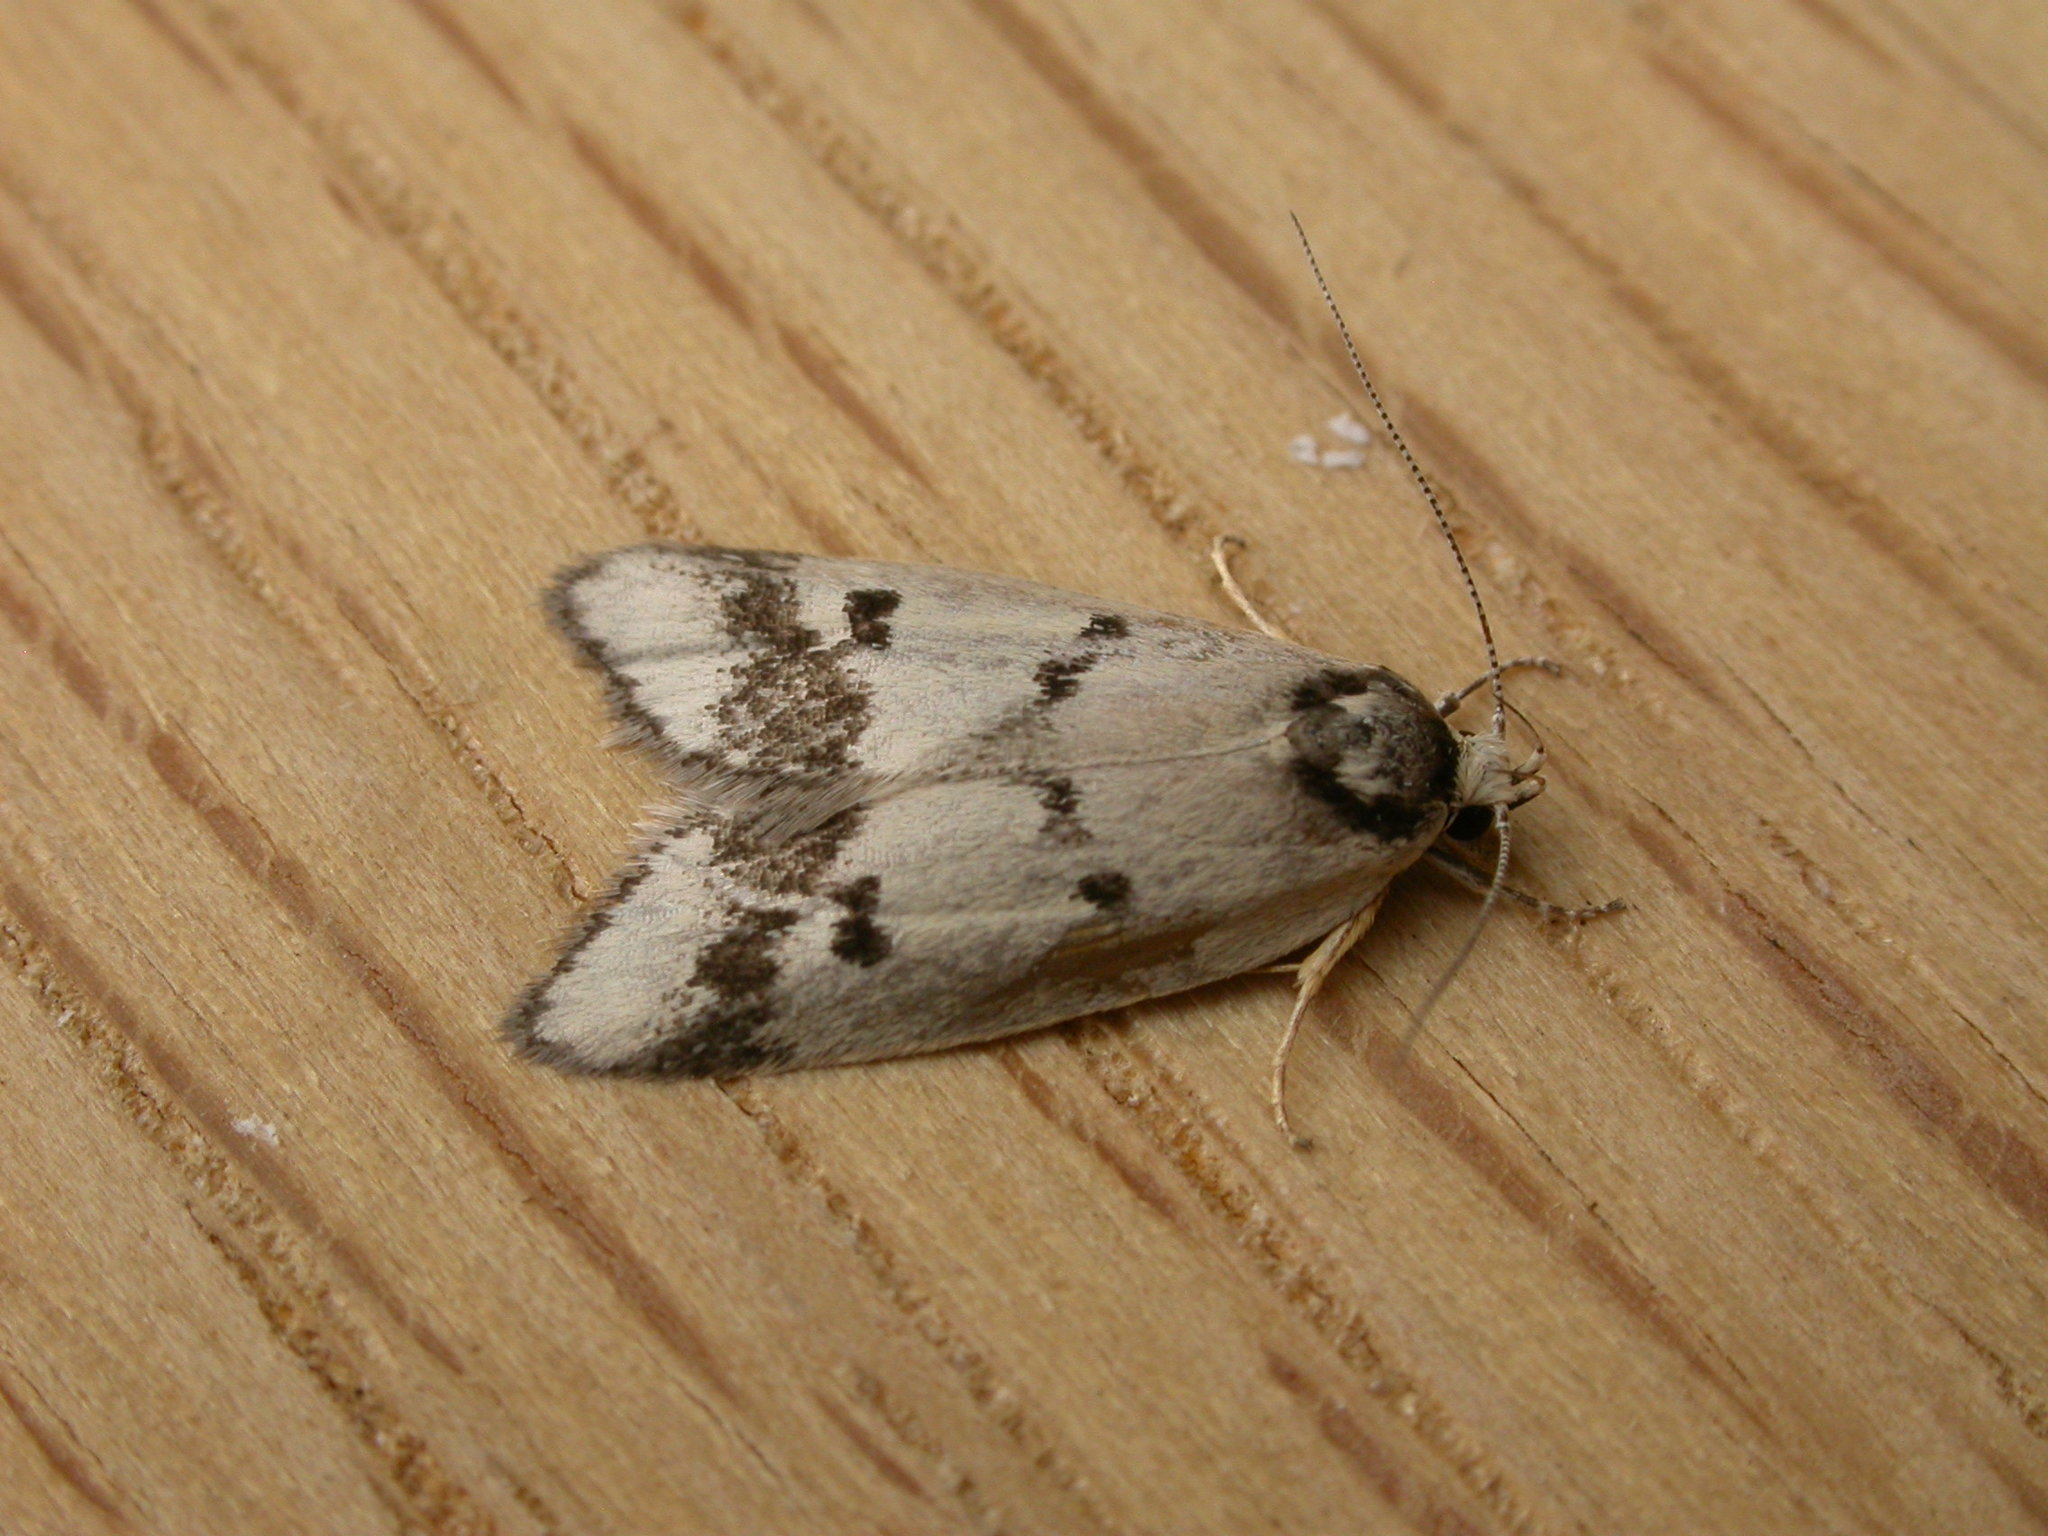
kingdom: Animalia
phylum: Arthropoda
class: Insecta
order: Lepidoptera
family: Oecophoridae
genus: Compsotropha
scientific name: Compsotropha selenias
